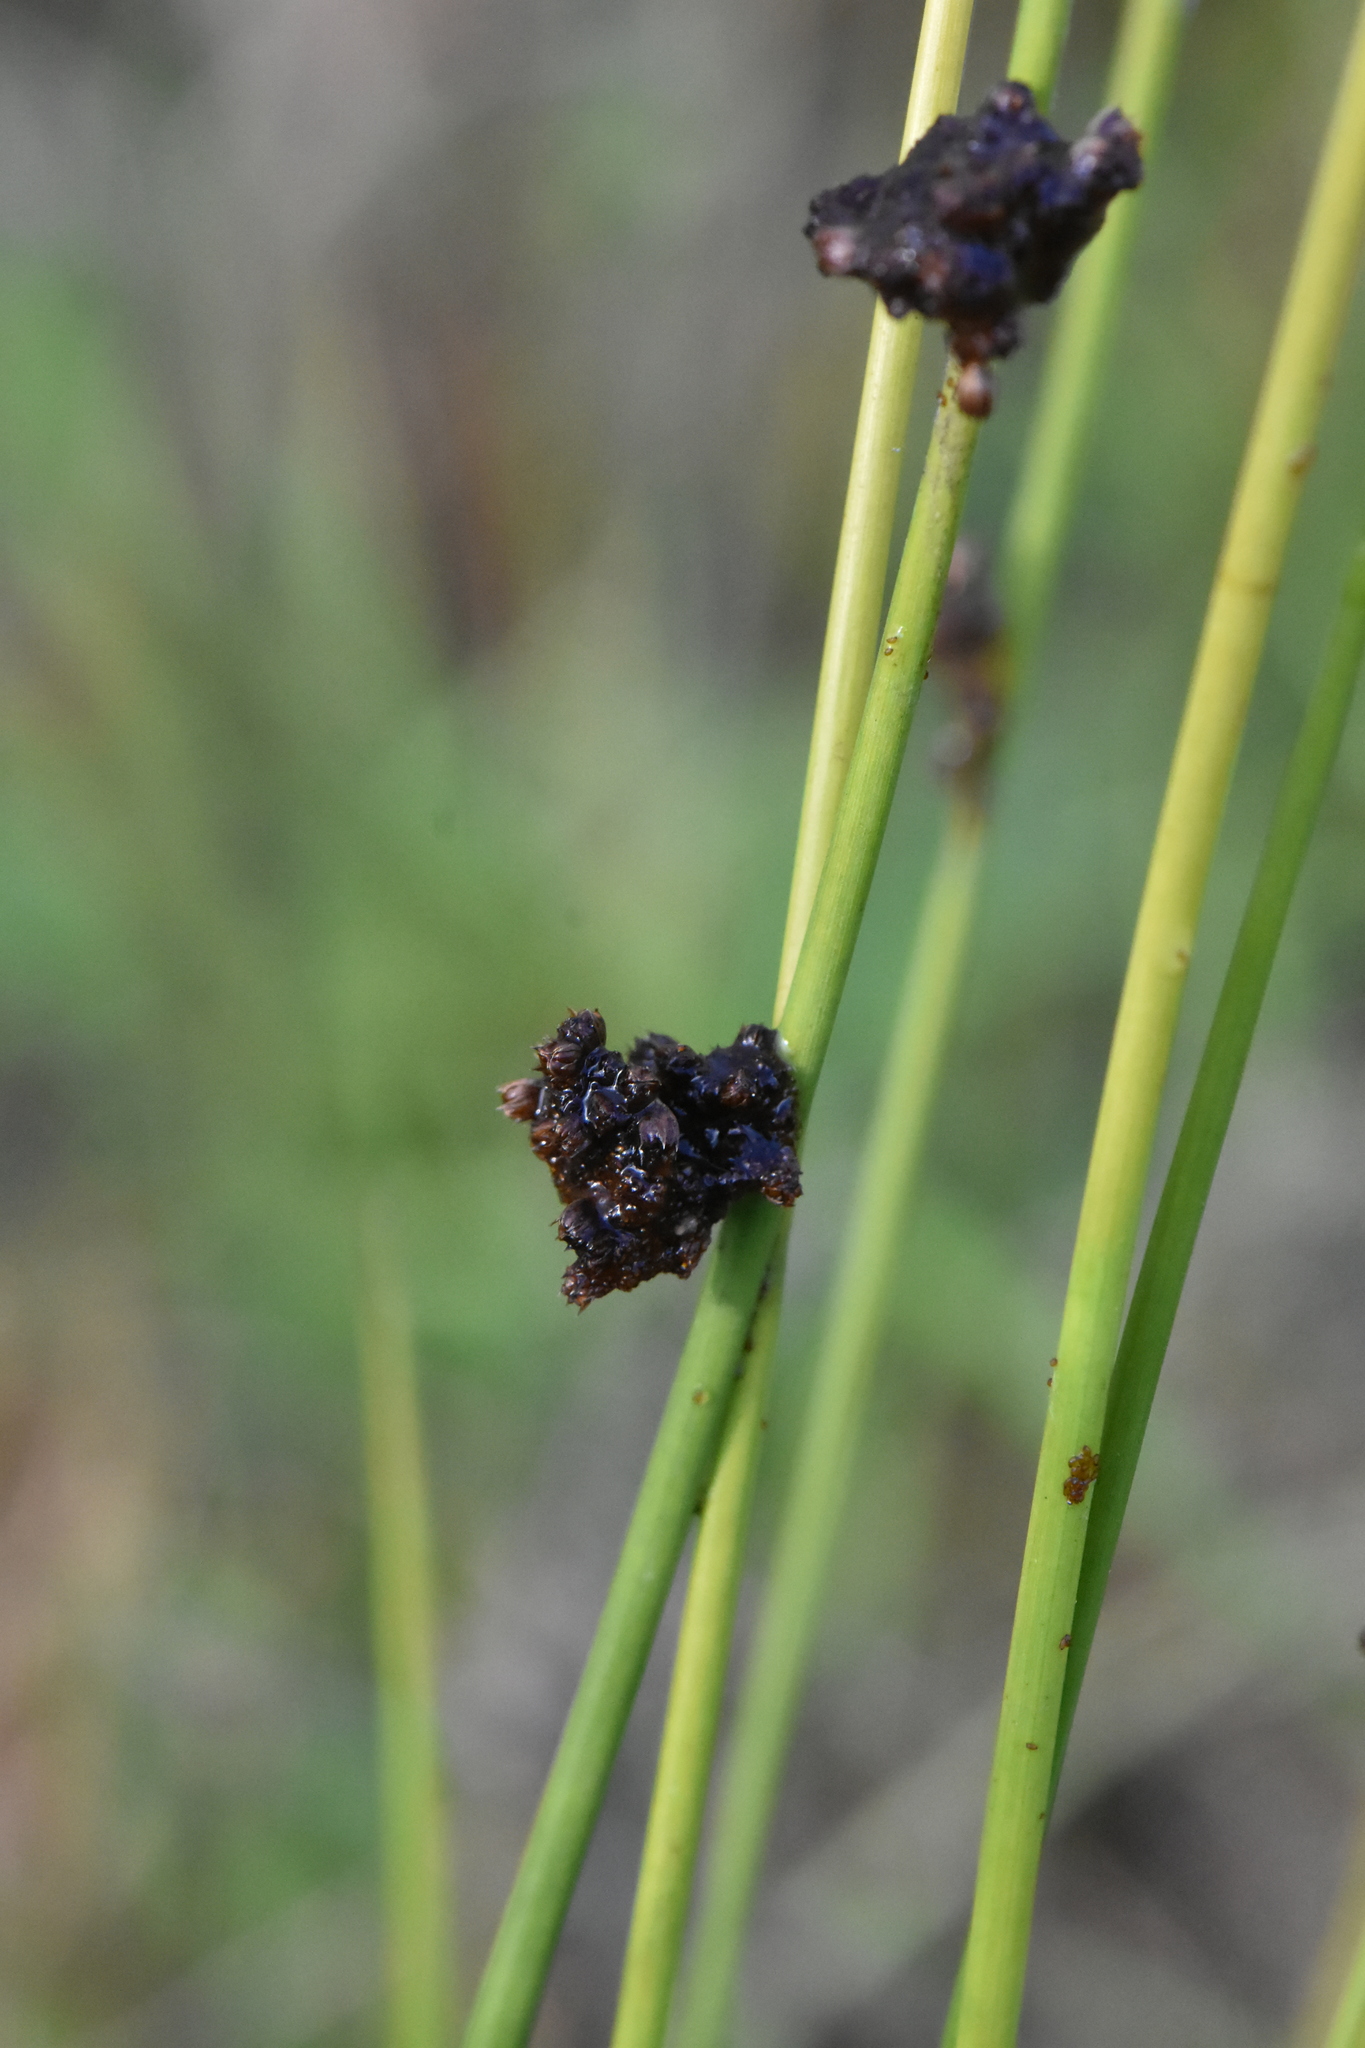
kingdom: Plantae
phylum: Tracheophyta
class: Liliopsida
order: Poales
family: Juncaceae
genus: Juncus
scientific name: Juncus conglomeratus
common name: Compact rush
